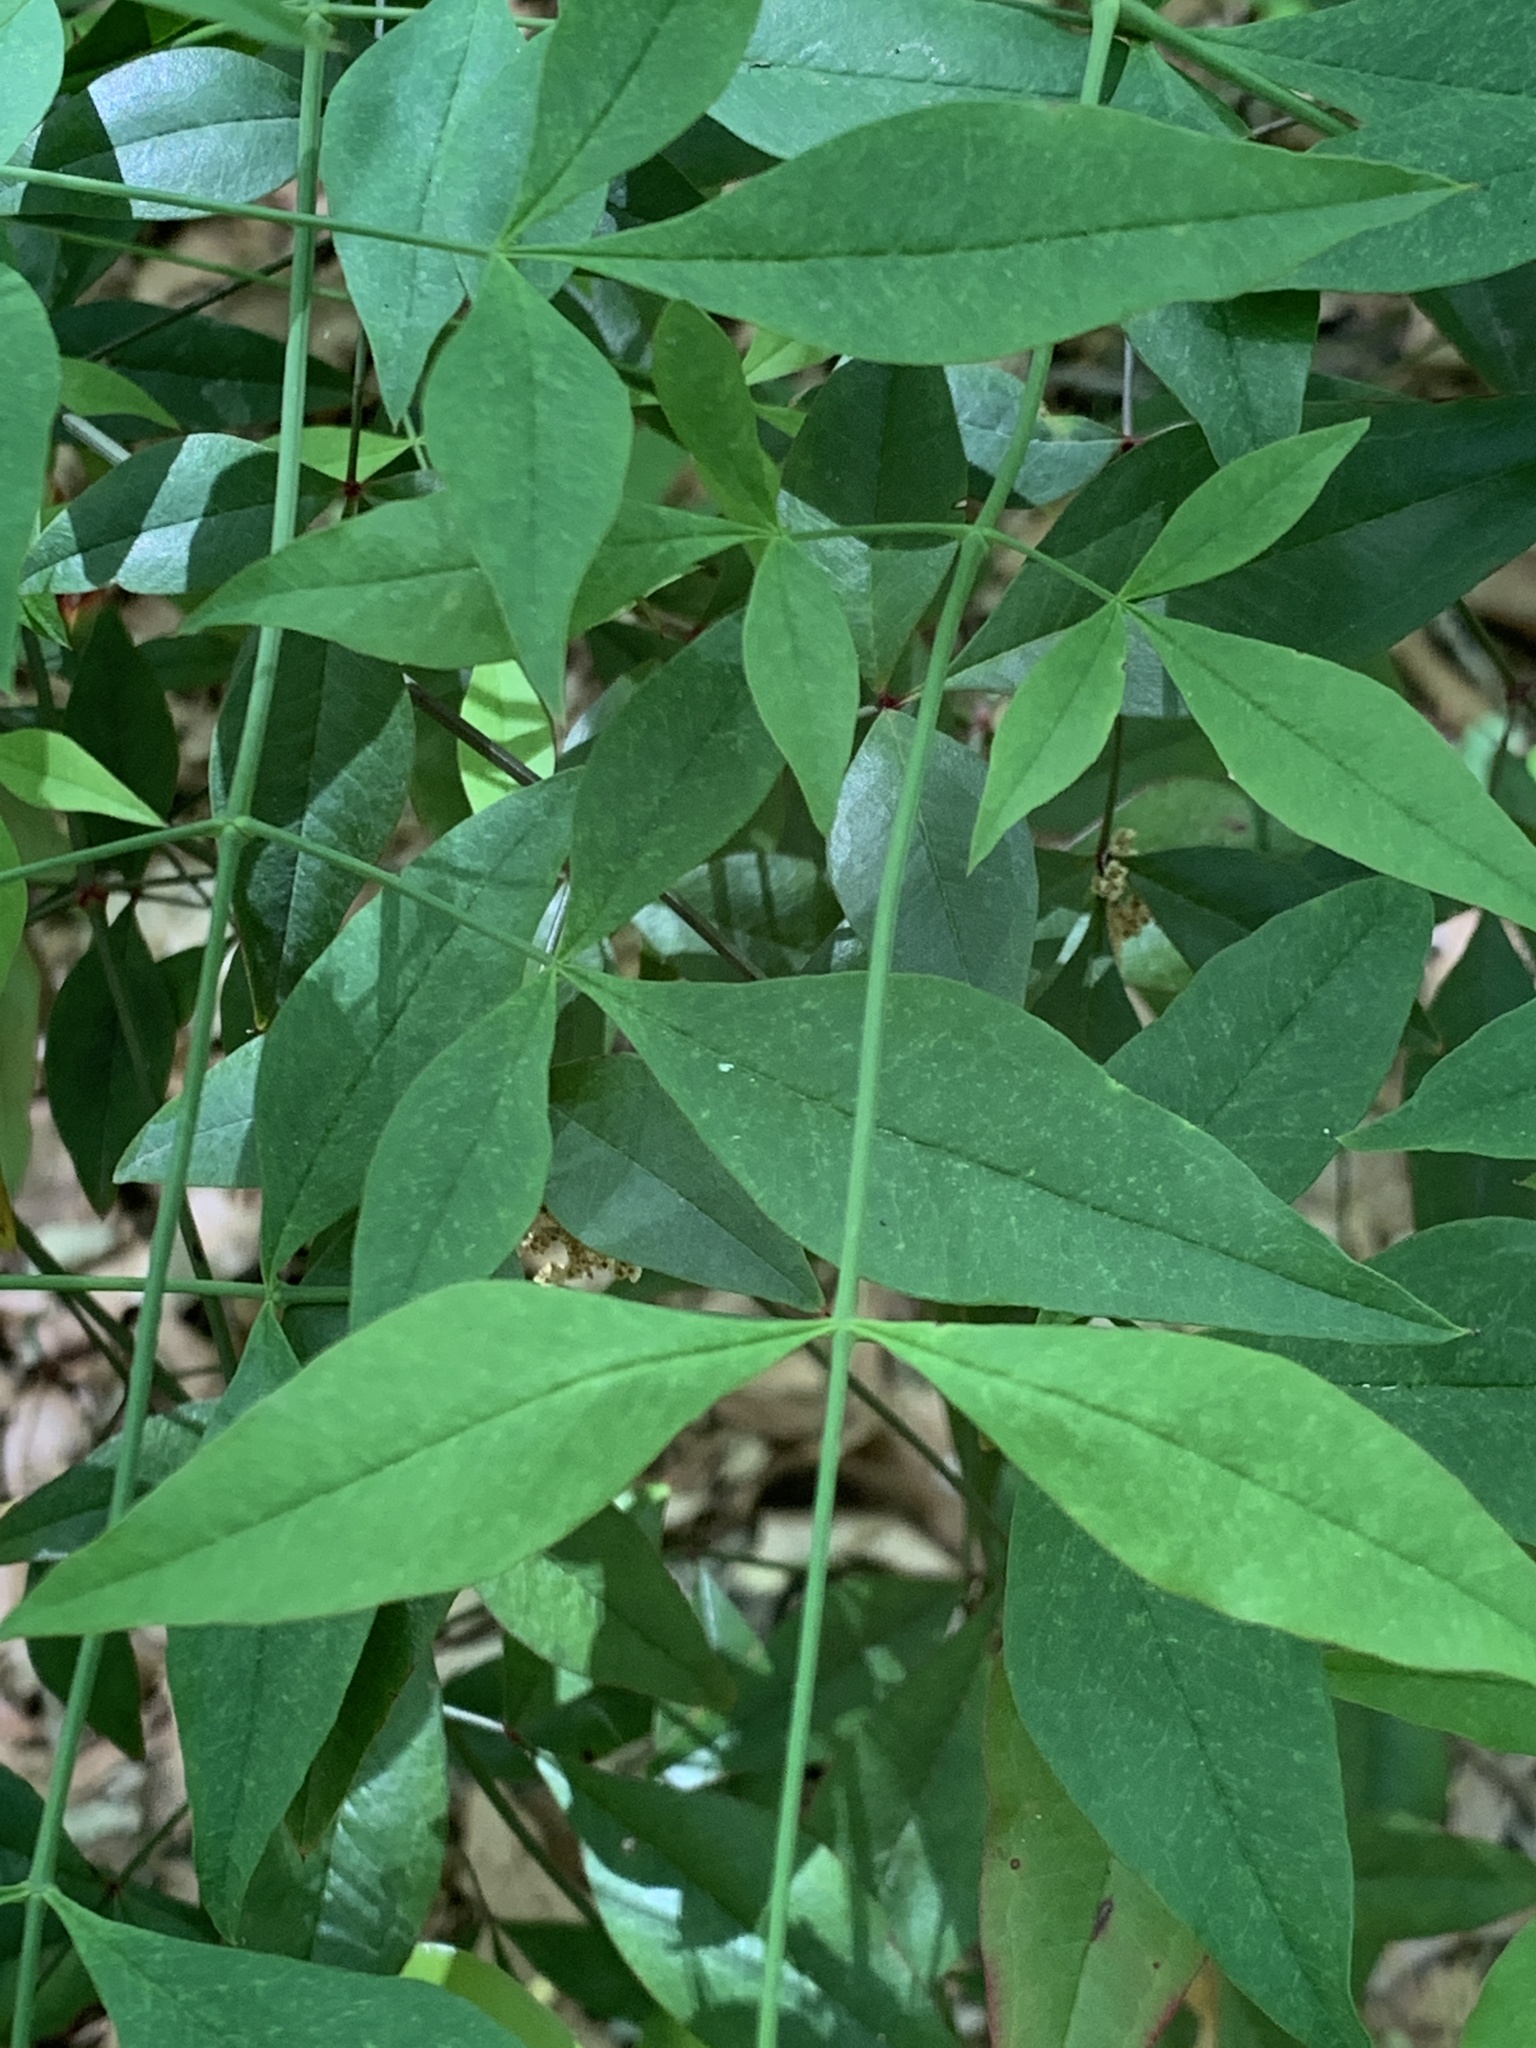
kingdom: Plantae
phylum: Tracheophyta
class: Magnoliopsida
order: Ranunculales
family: Berberidaceae
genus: Nandina
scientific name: Nandina domestica
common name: Sacred bamboo
